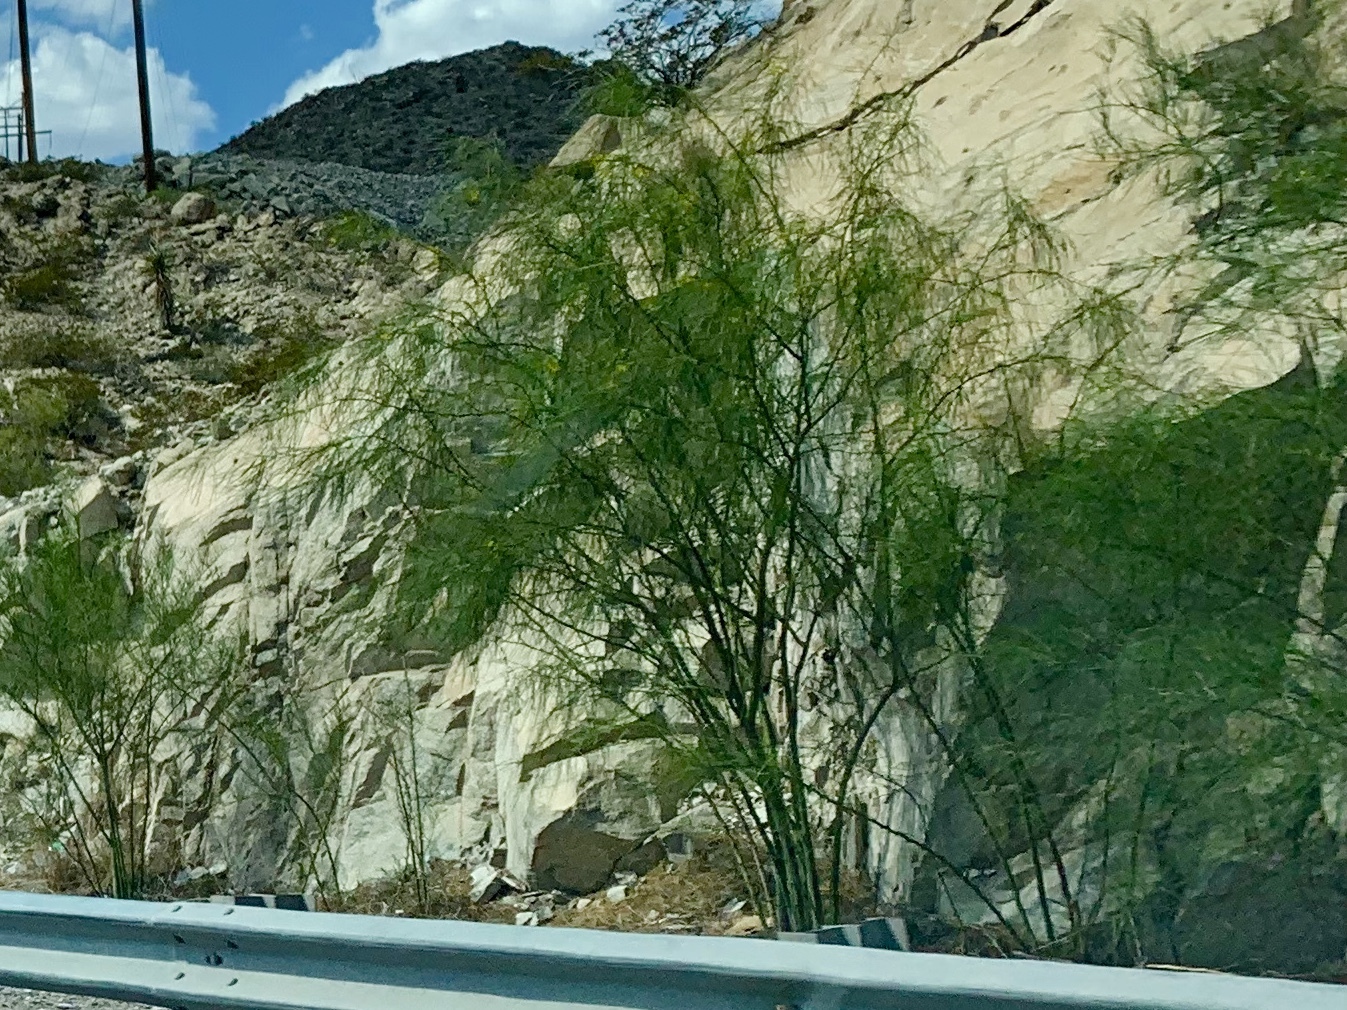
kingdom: Plantae
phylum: Tracheophyta
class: Magnoliopsida
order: Fabales
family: Fabaceae
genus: Parkinsonia
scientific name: Parkinsonia aculeata
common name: Jerusalem thorn
